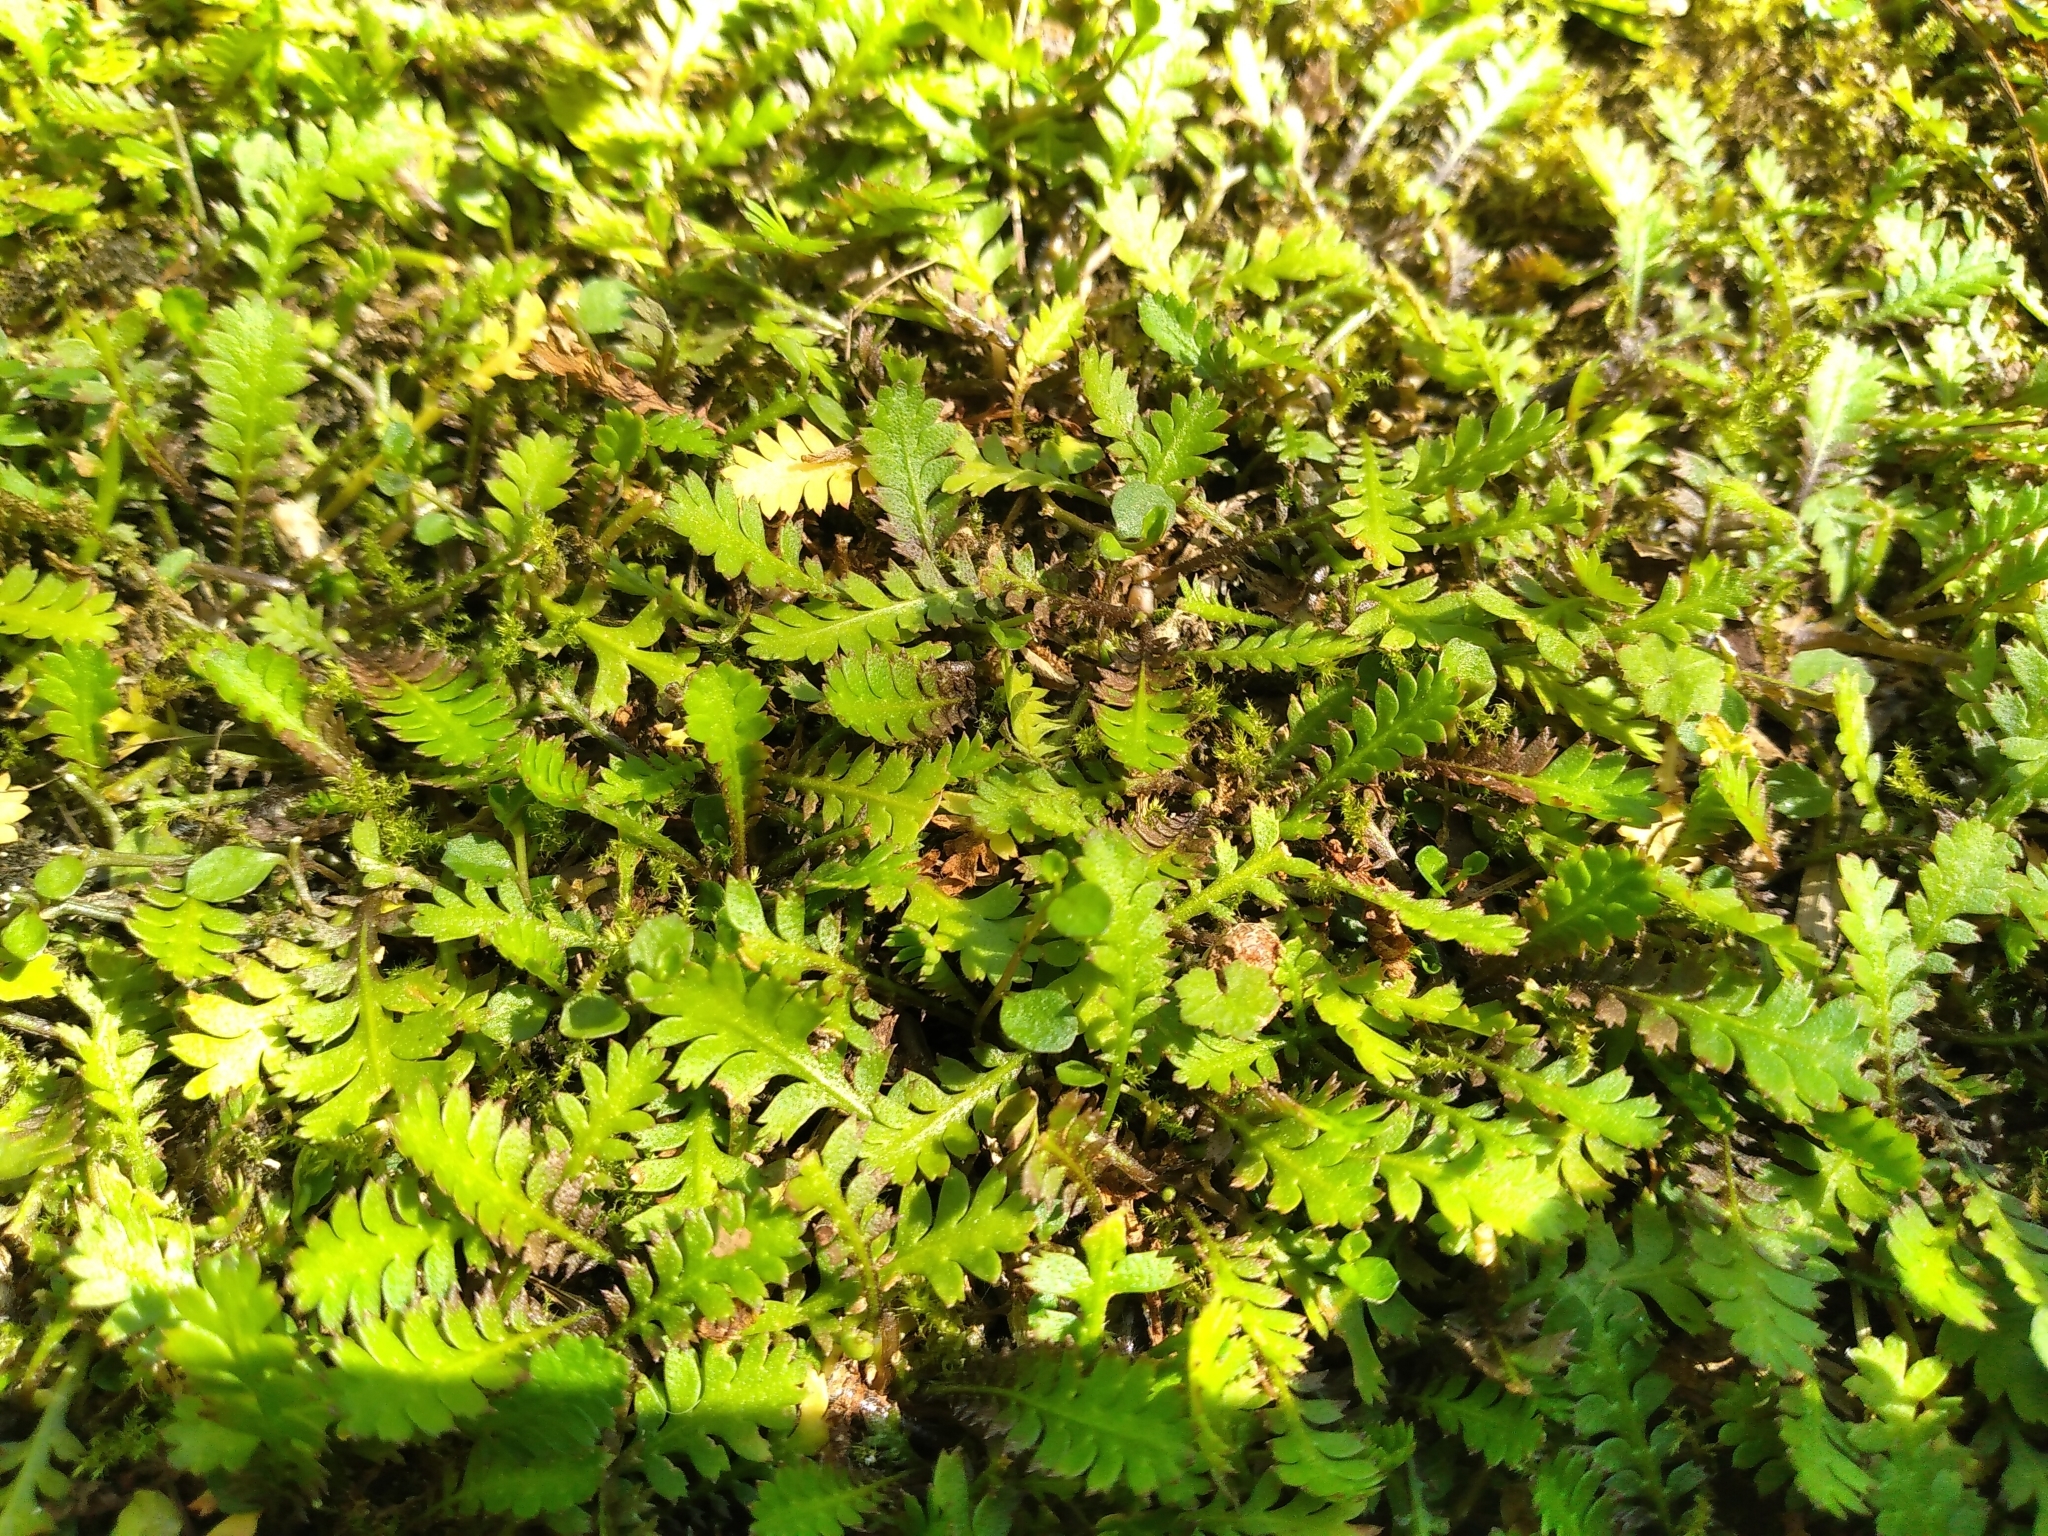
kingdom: Plantae
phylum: Tracheophyta
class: Magnoliopsida
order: Asterales
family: Asteraceae
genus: Leptinella
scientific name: Leptinella squalida
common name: New zealand brass-buttons
